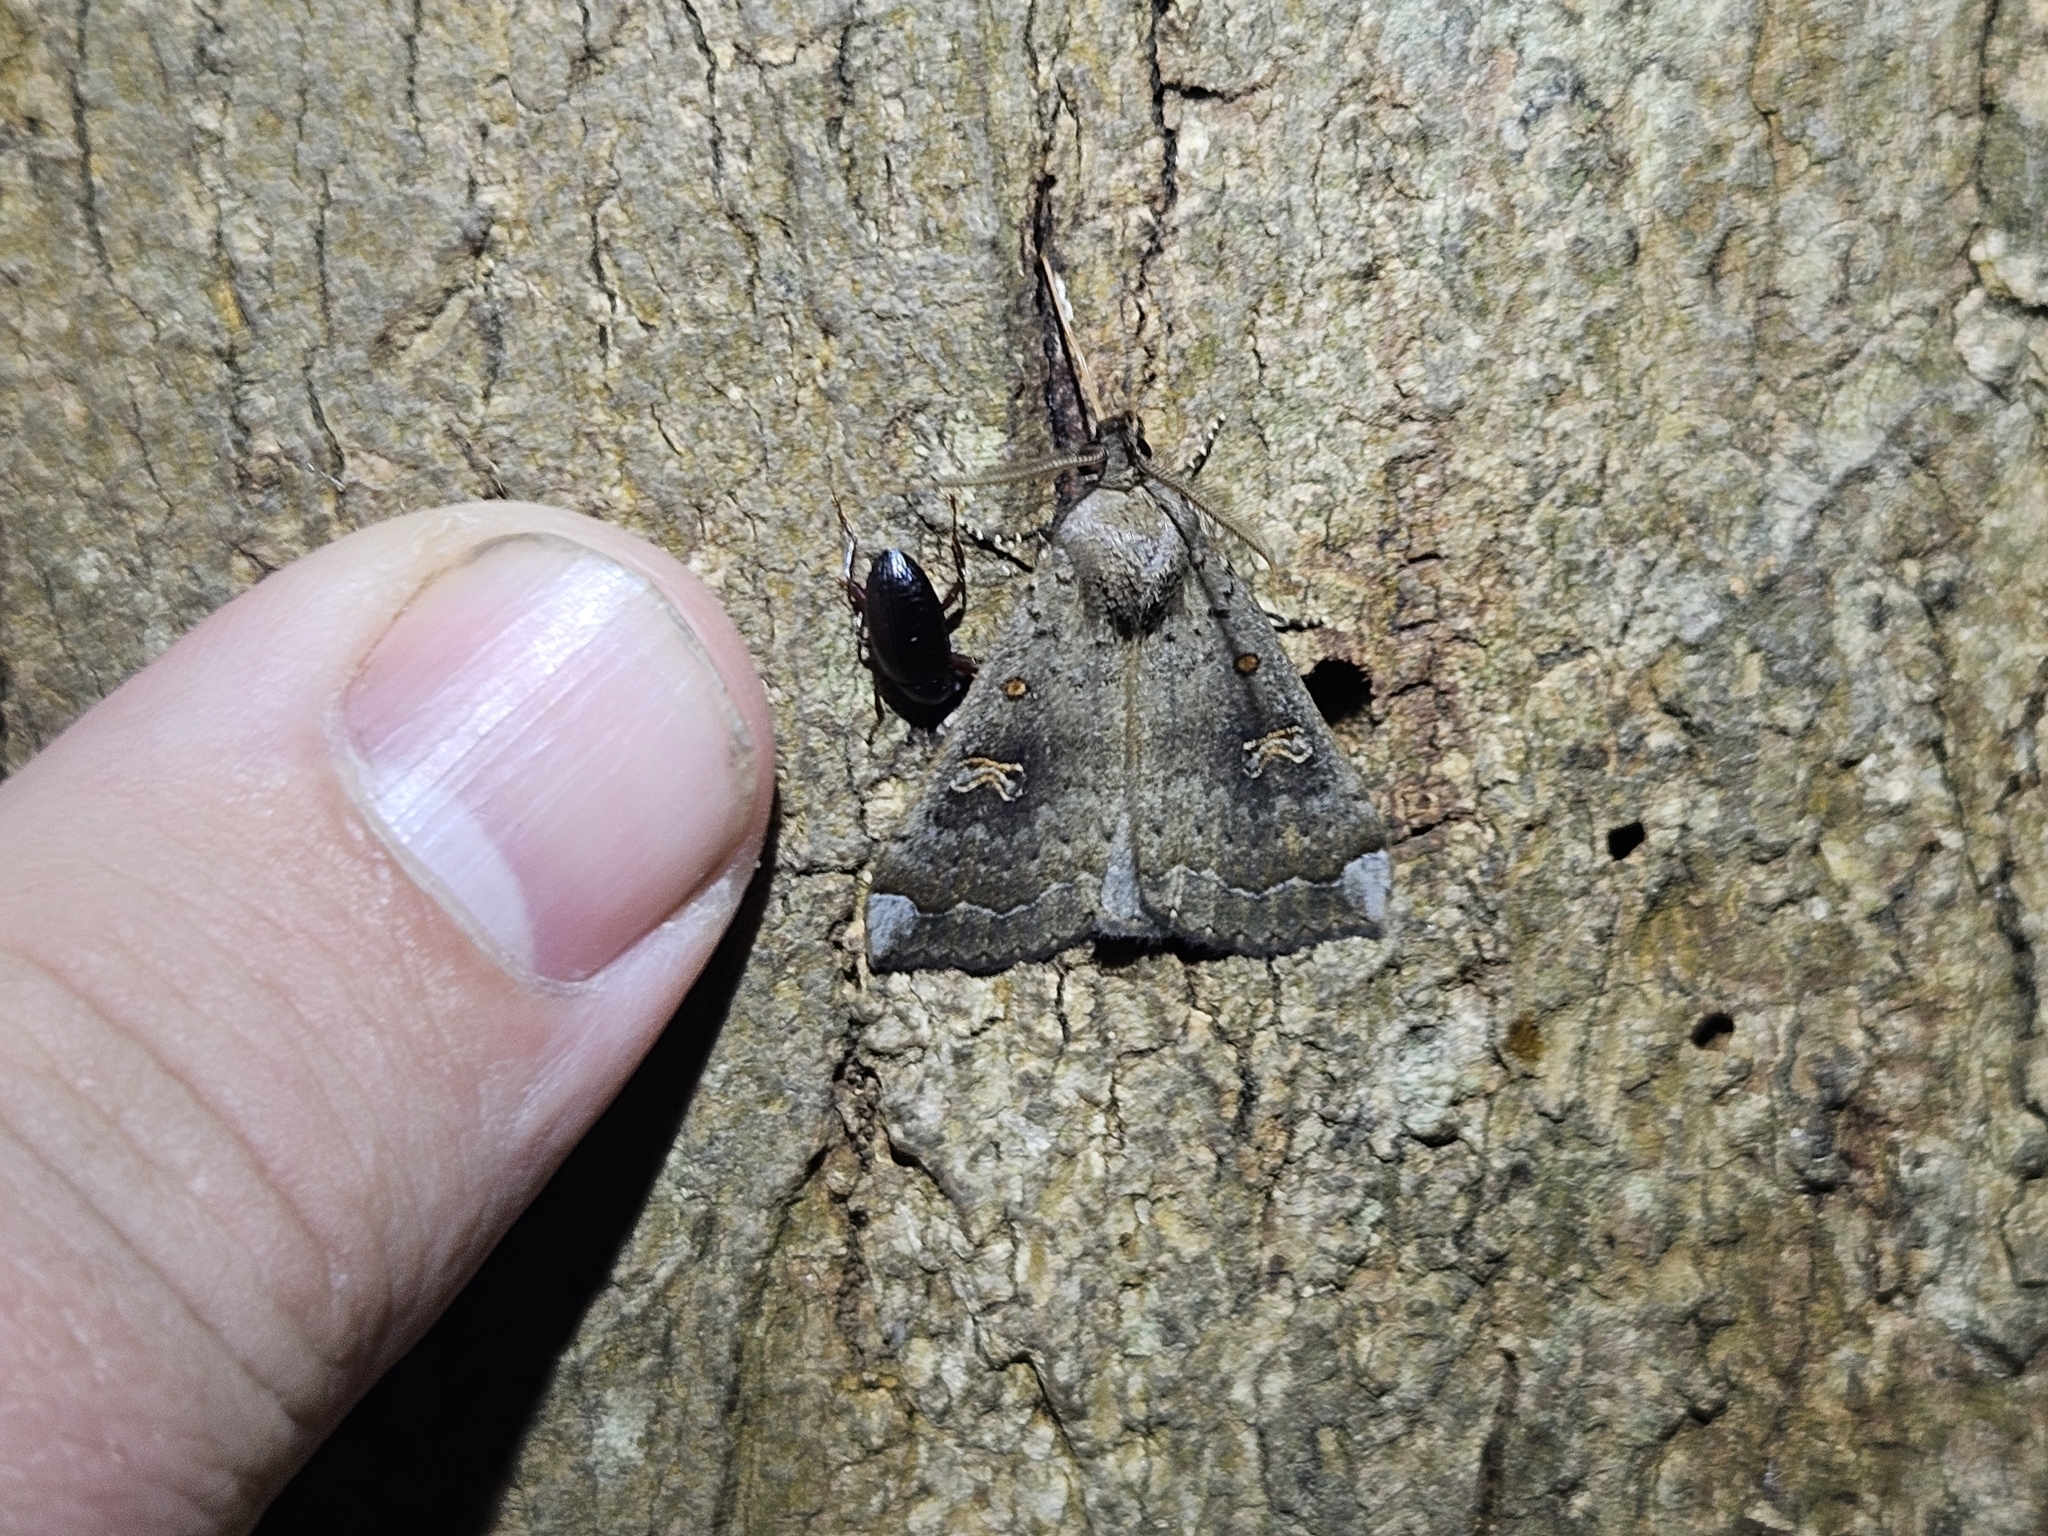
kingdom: Animalia
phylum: Arthropoda
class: Insecta
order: Lepidoptera
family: Erebidae
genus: Rhapsa
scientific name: Rhapsa scotosialis
